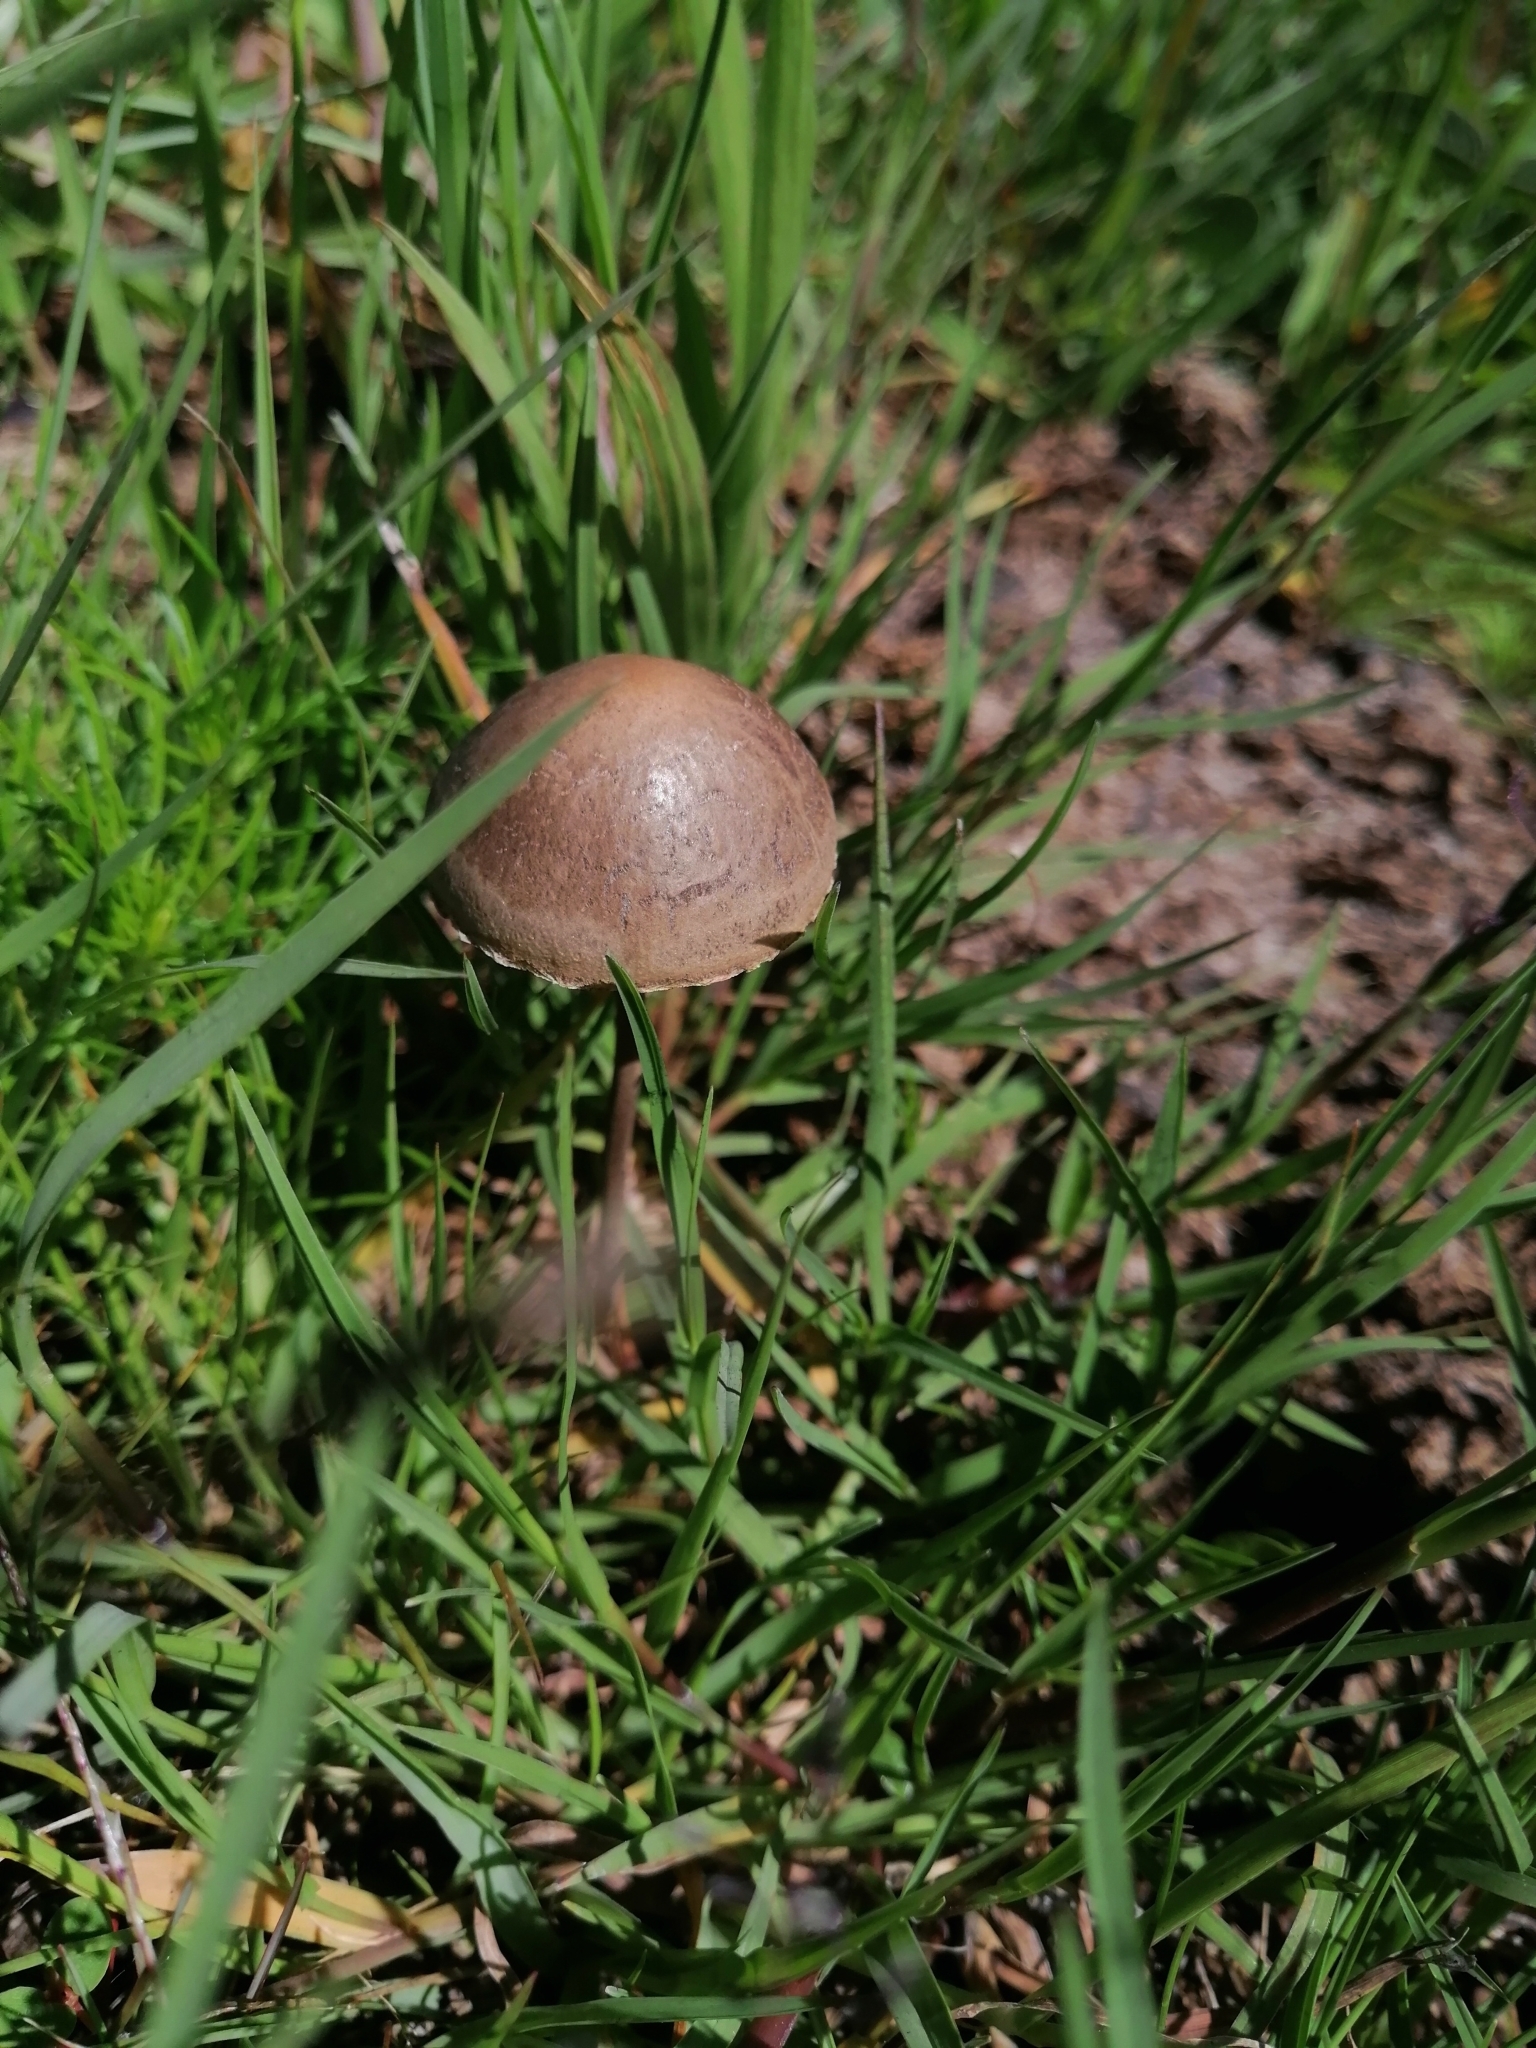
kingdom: Fungi
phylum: Basidiomycota
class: Agaricomycetes
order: Agaricales
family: Bolbitiaceae
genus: Panaeolus
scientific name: Panaeolus papilionaceus
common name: Petticoat mottlegill
